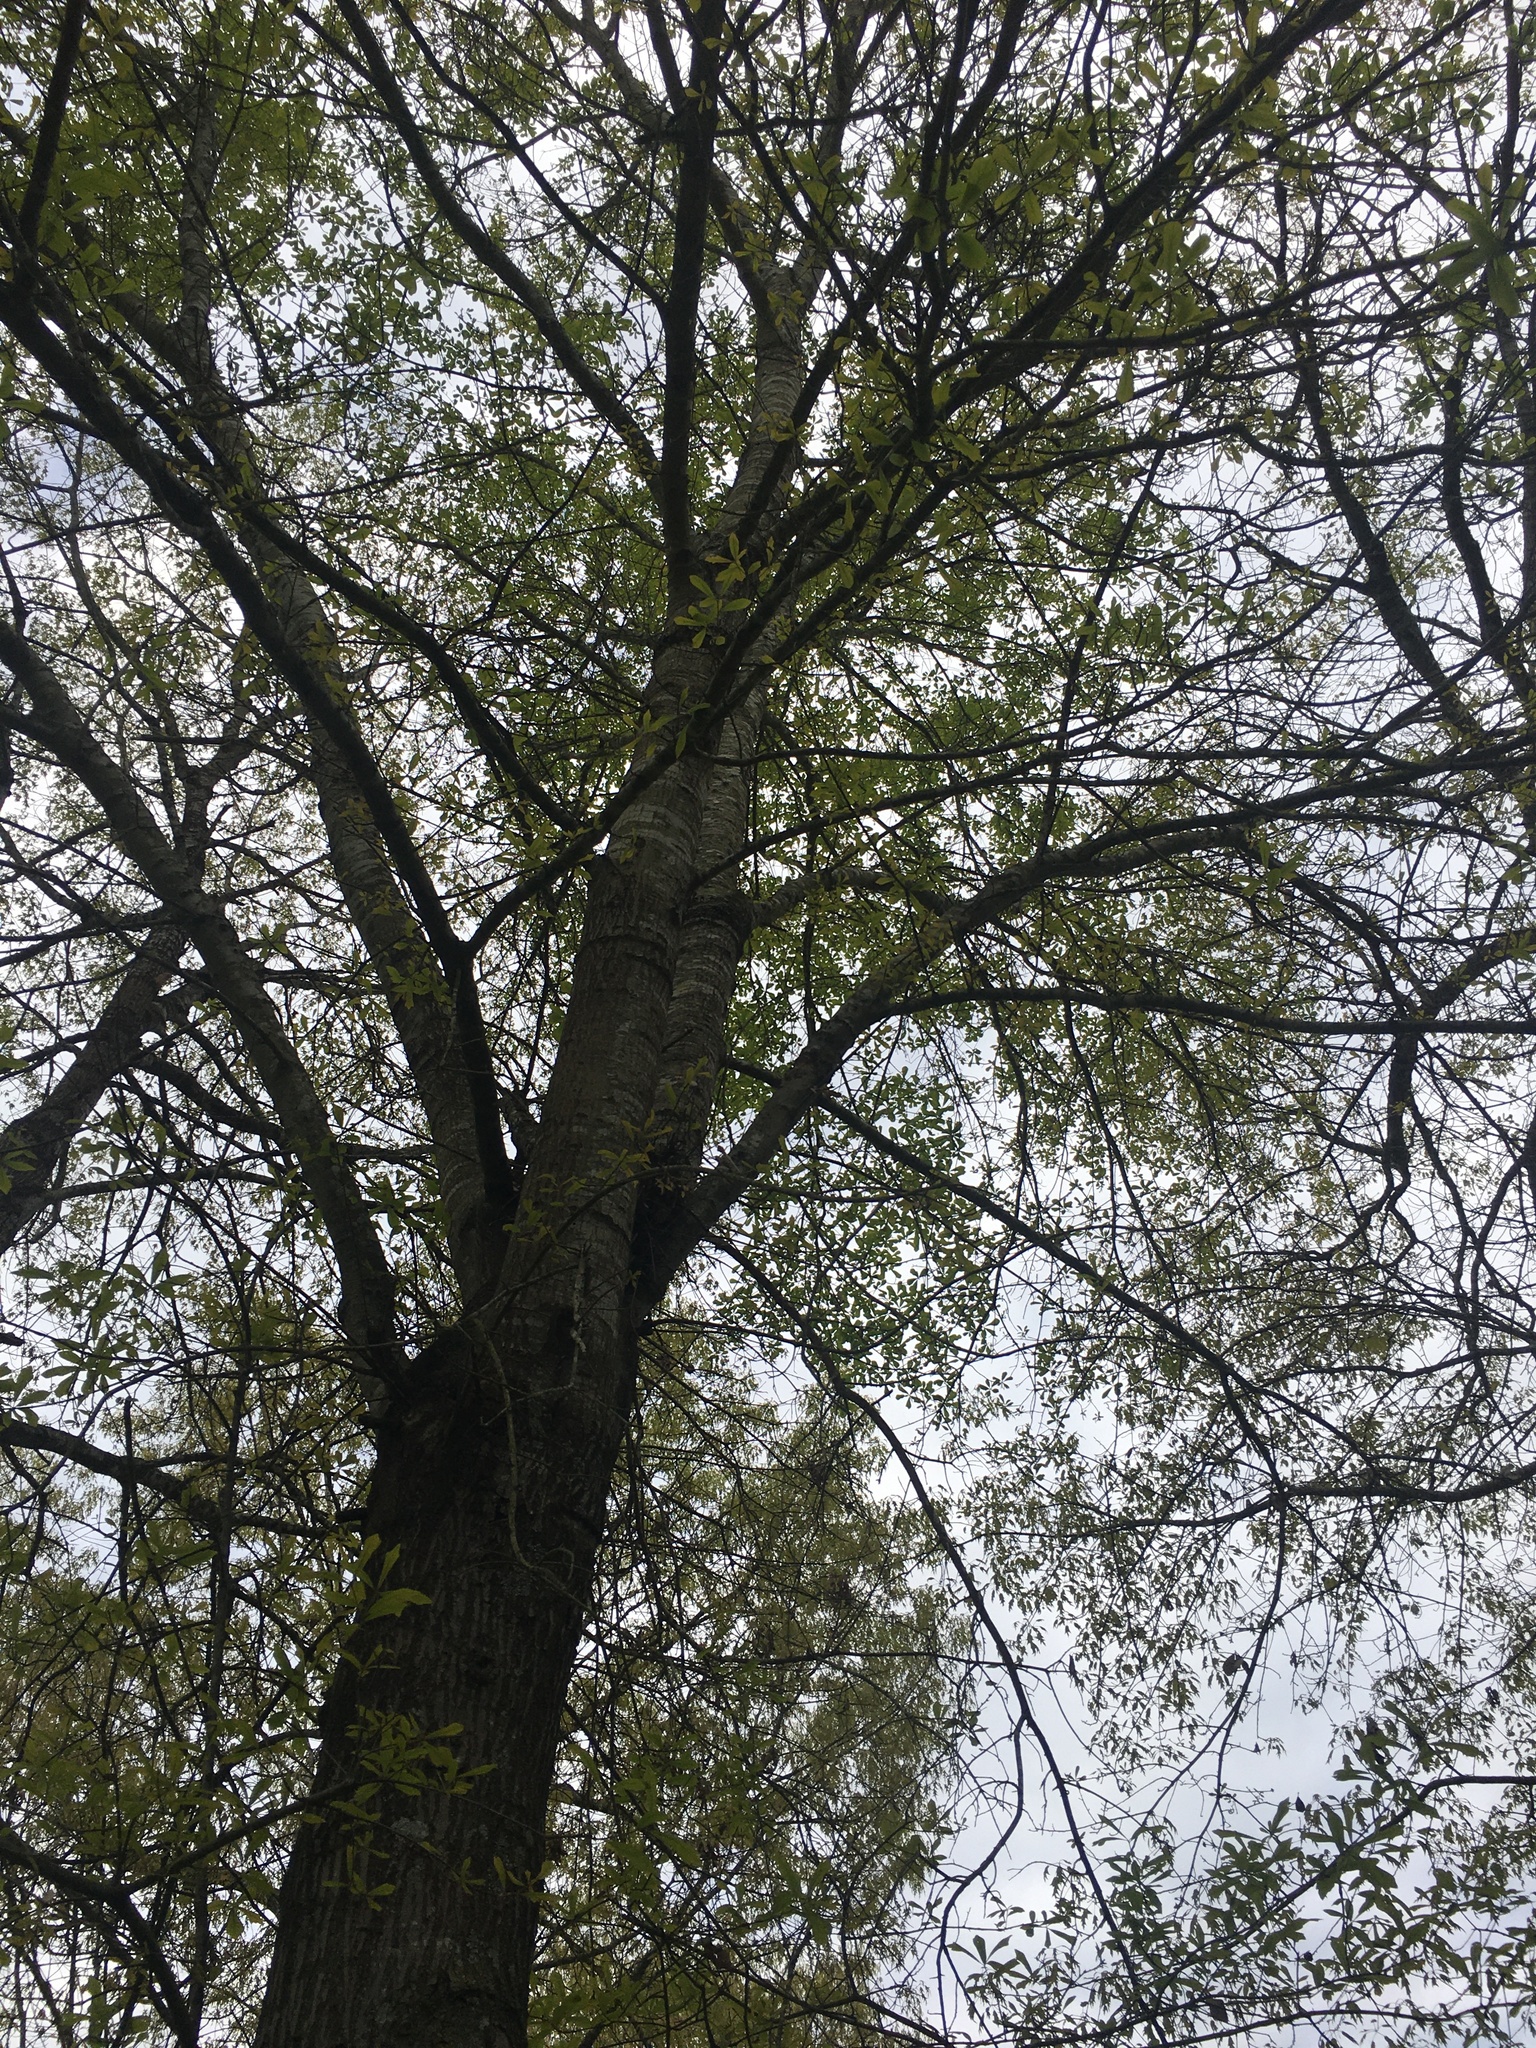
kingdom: Plantae
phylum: Tracheophyta
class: Magnoliopsida
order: Fagales
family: Fagaceae
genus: Quercus
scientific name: Quercus nigra
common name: Water oak
